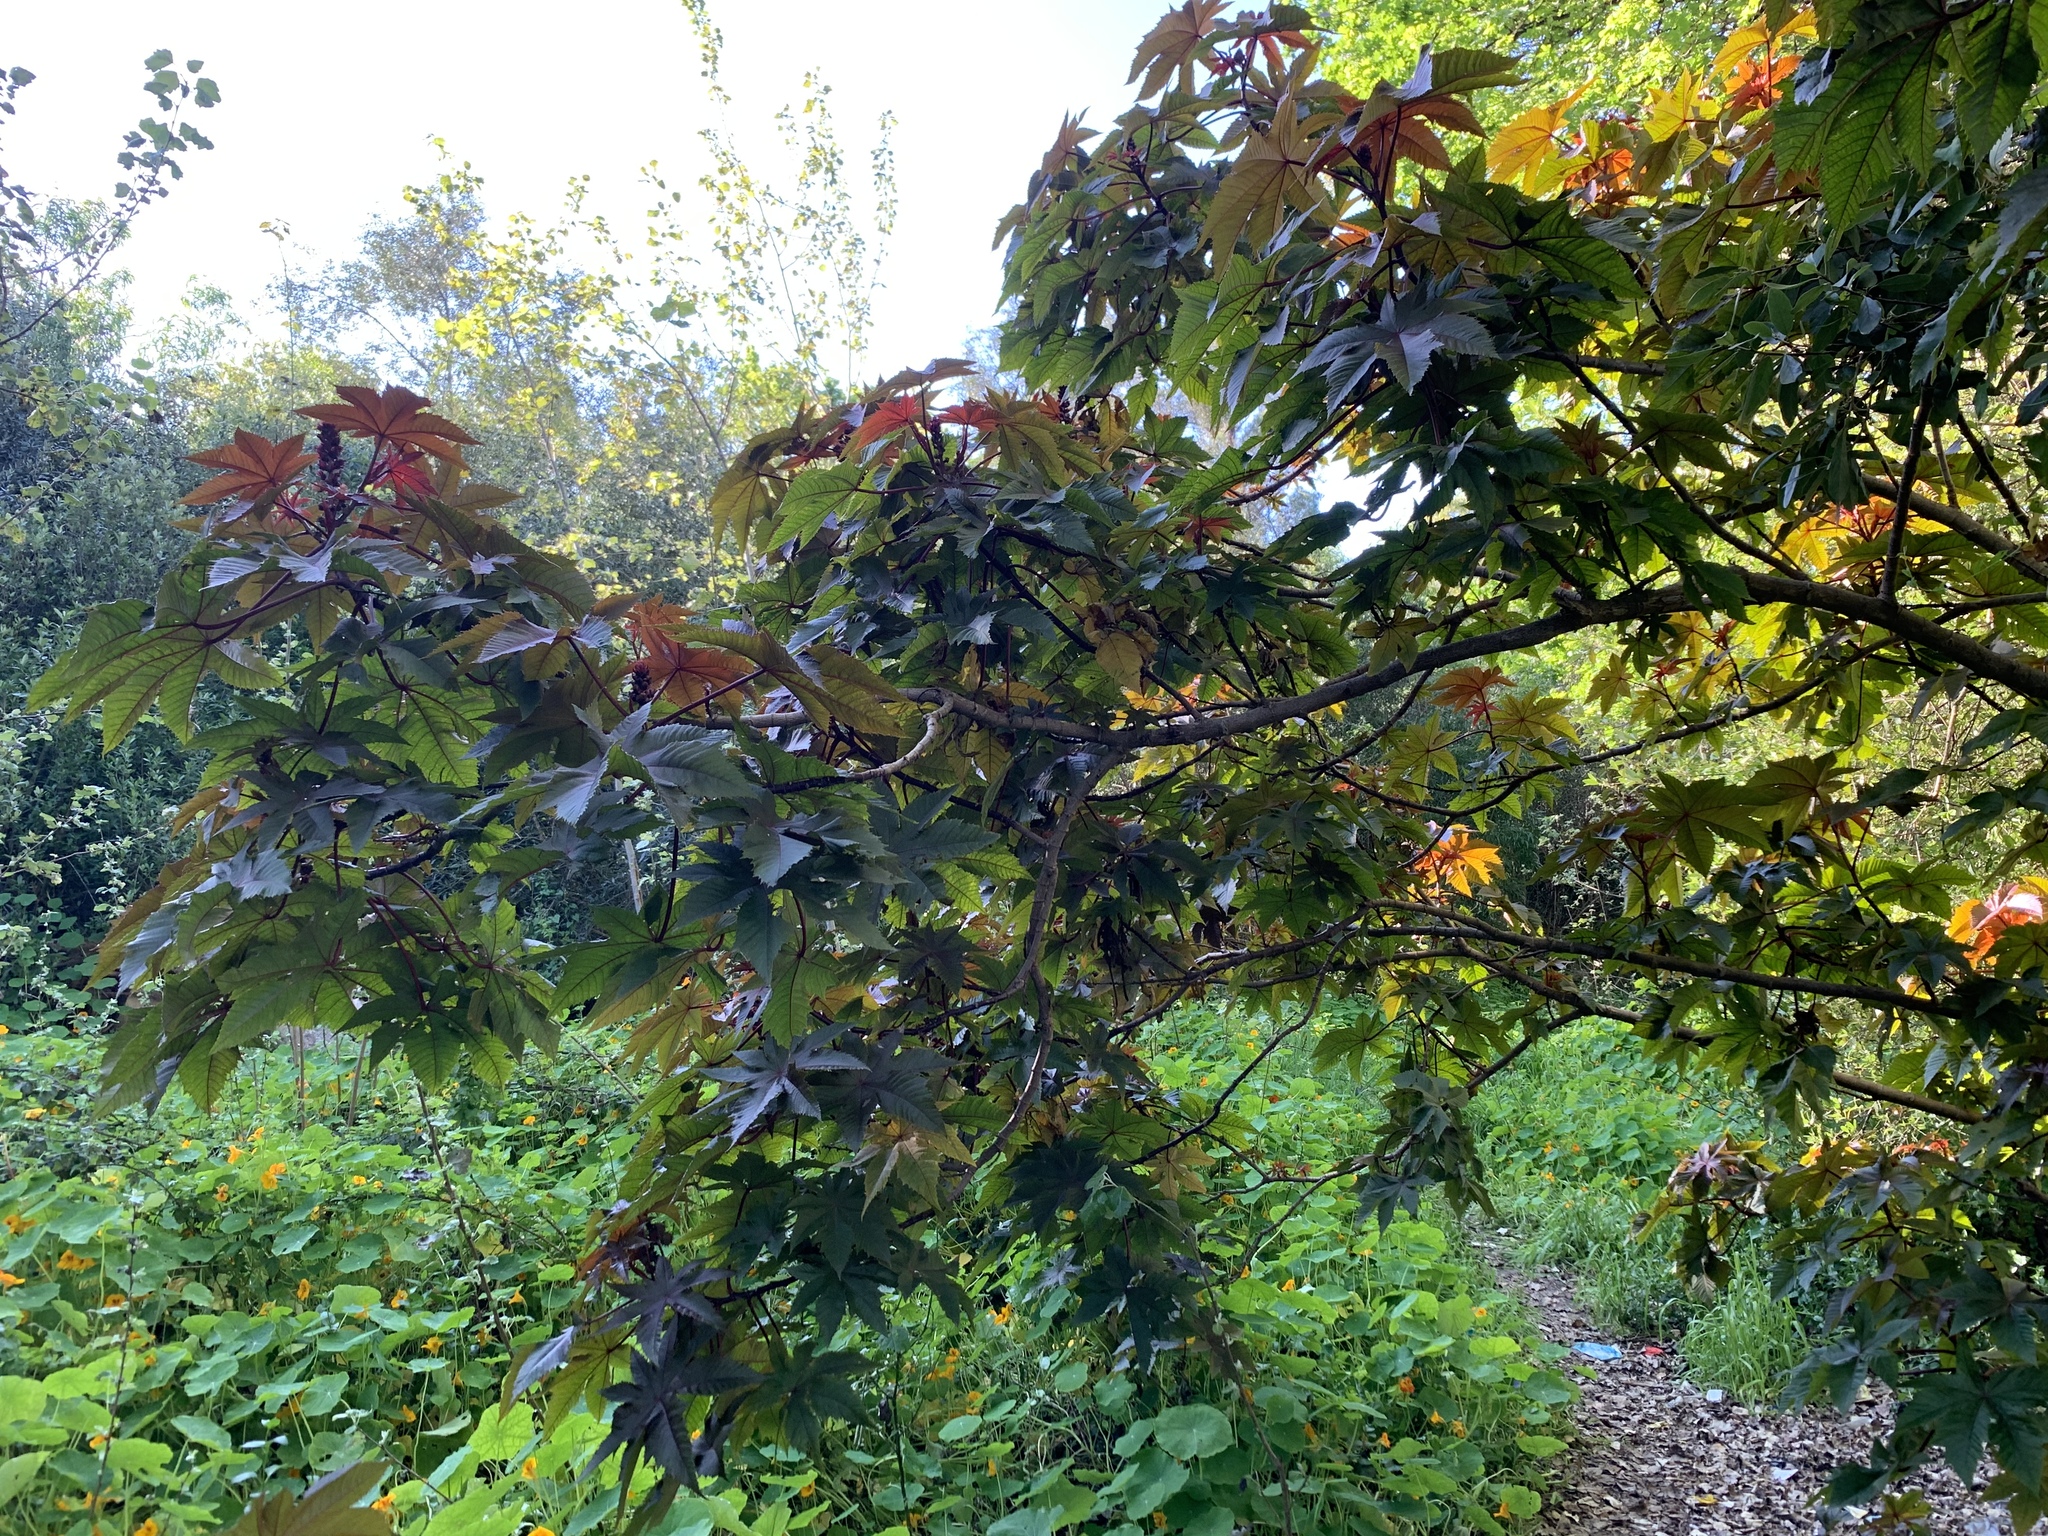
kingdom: Plantae
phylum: Tracheophyta
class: Magnoliopsida
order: Malpighiales
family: Euphorbiaceae
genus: Ricinus
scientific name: Ricinus communis
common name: Castor-oil-plant
